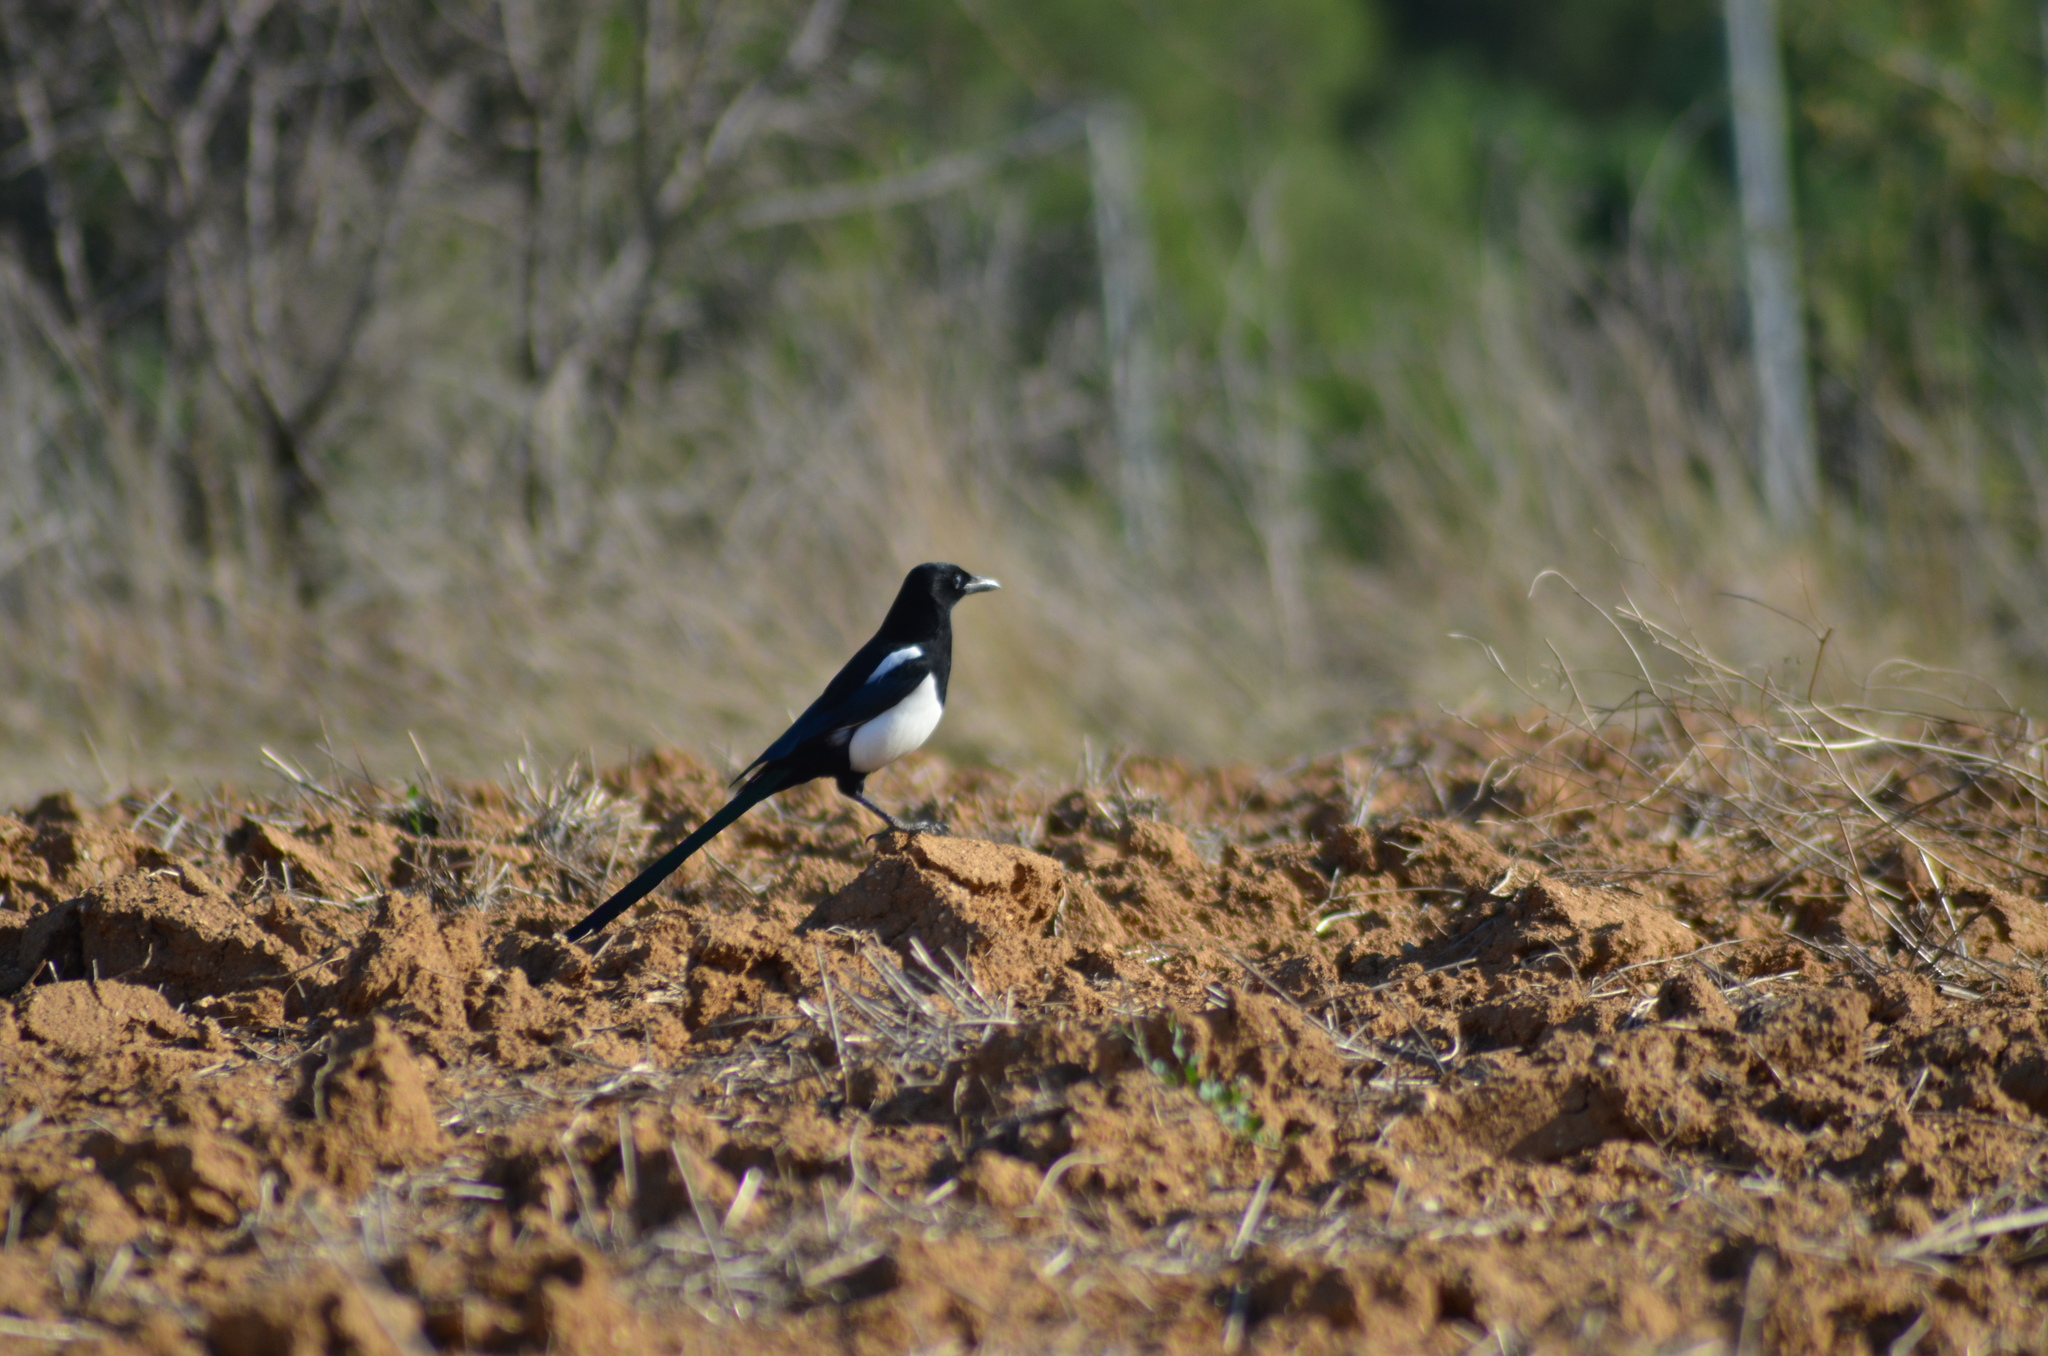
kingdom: Animalia
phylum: Chordata
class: Aves
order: Passeriformes
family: Corvidae
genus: Pica
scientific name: Pica pica
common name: Eurasian magpie
